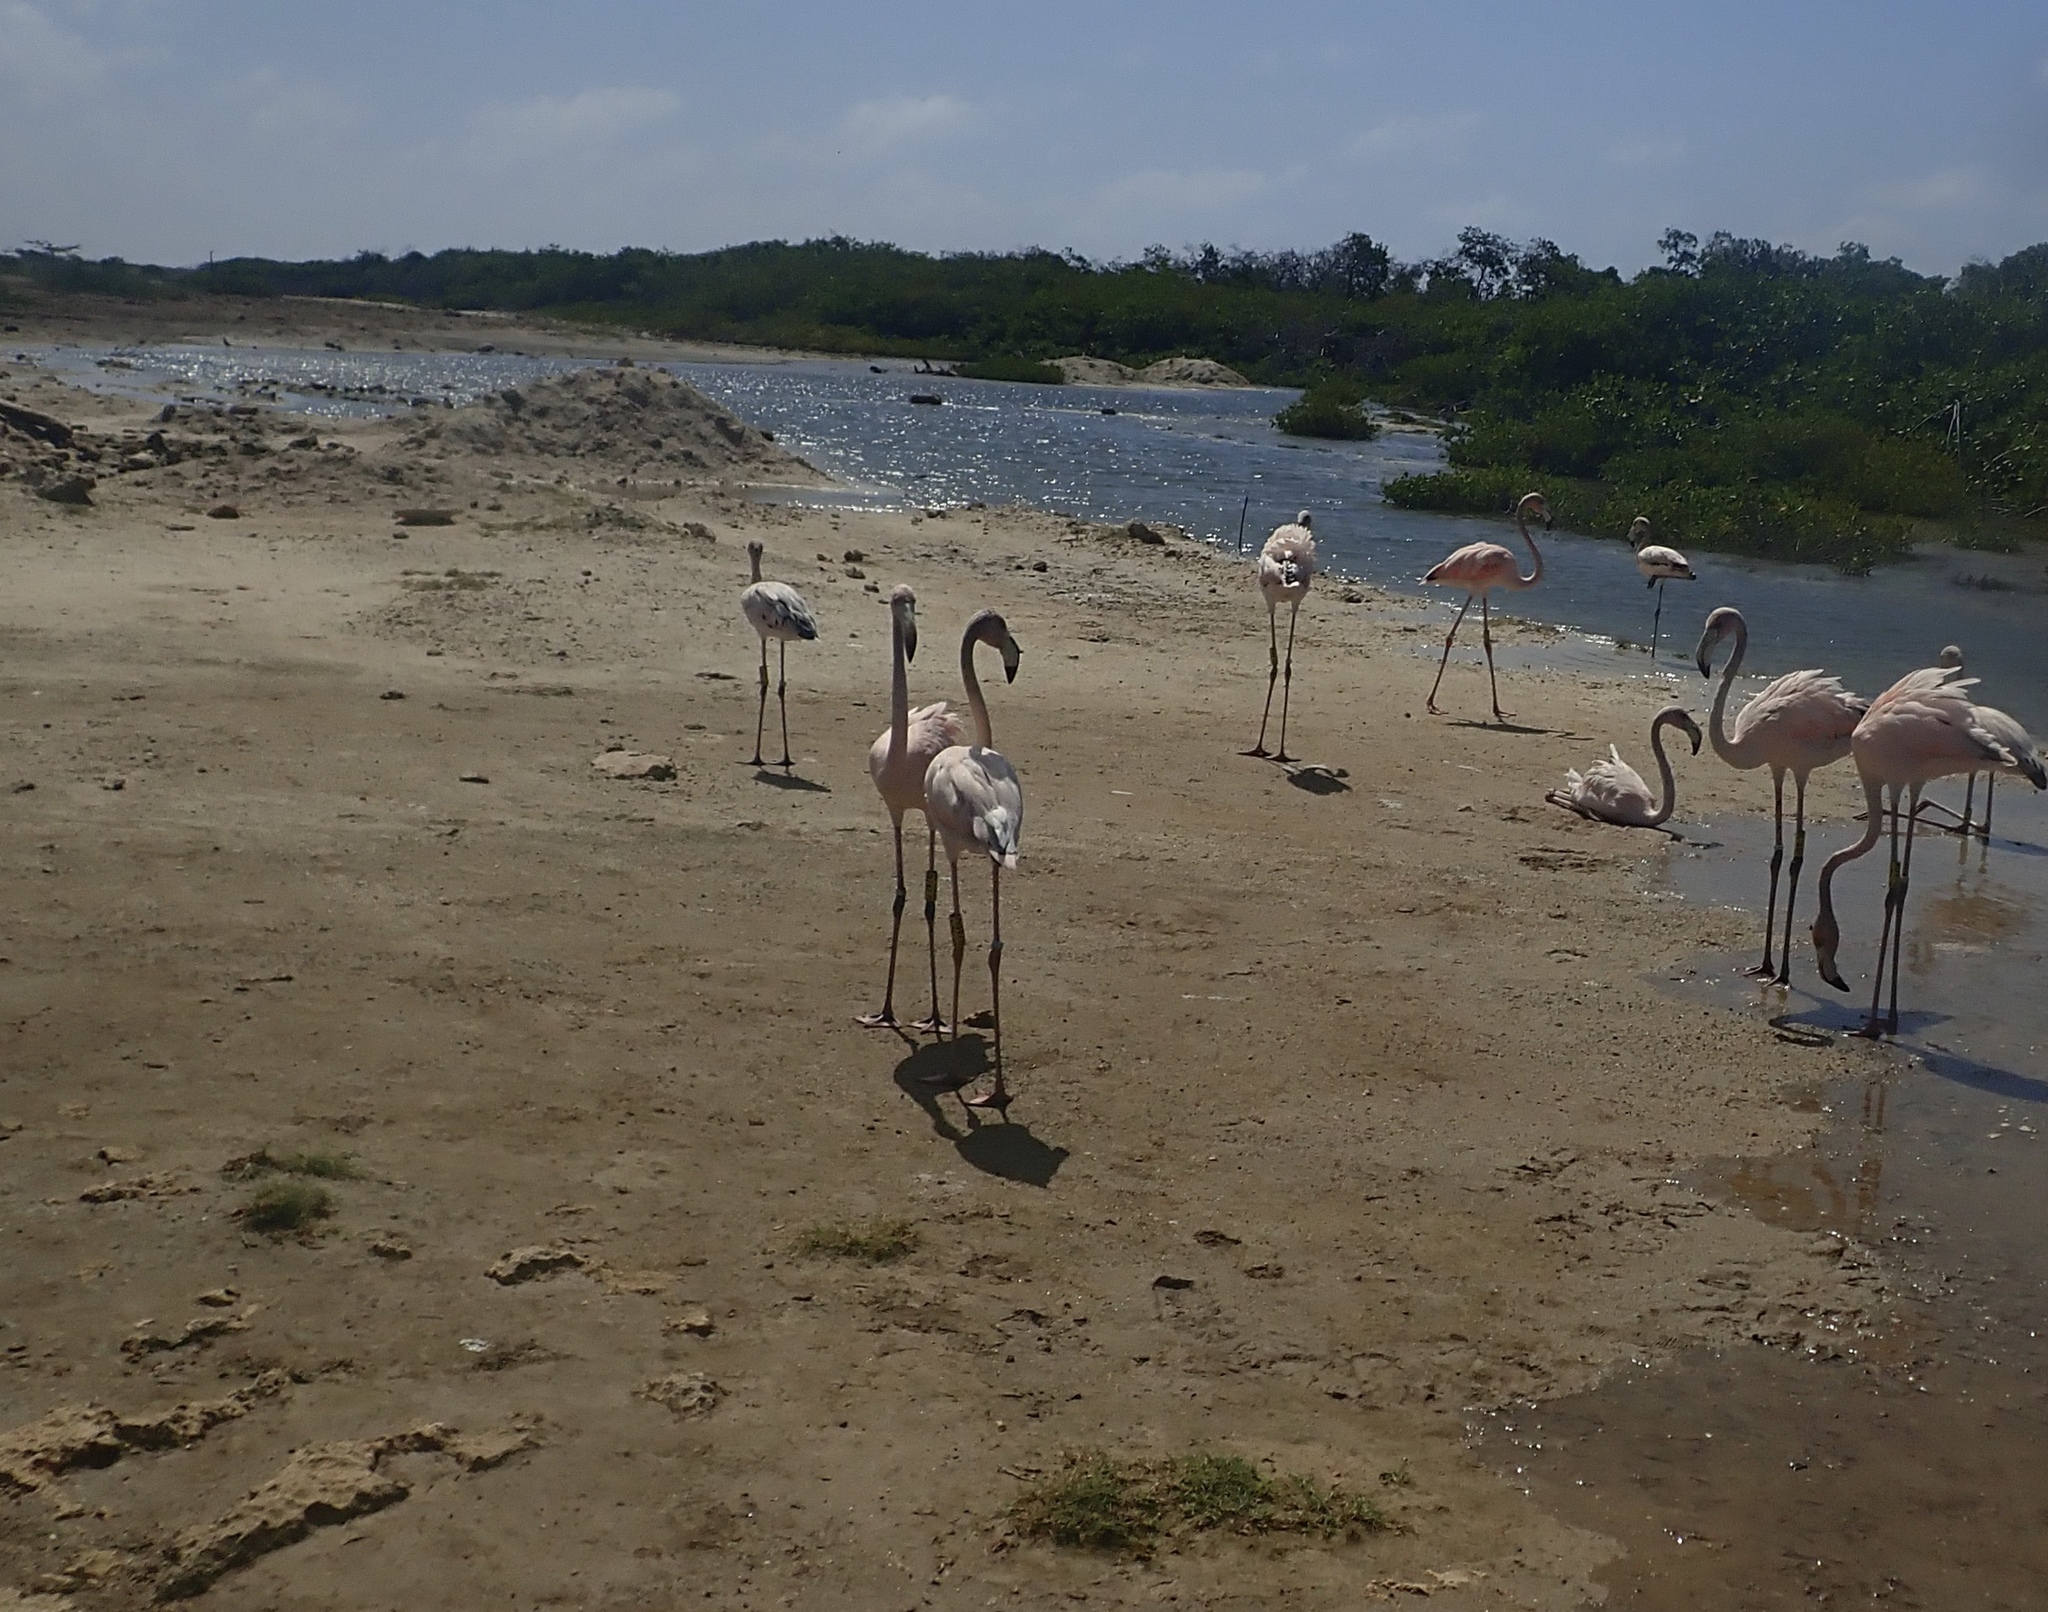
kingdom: Animalia
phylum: Chordata
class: Aves
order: Phoenicopteriformes
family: Phoenicopteridae
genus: Phoenicopterus
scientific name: Phoenicopterus ruber
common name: American flamingo
